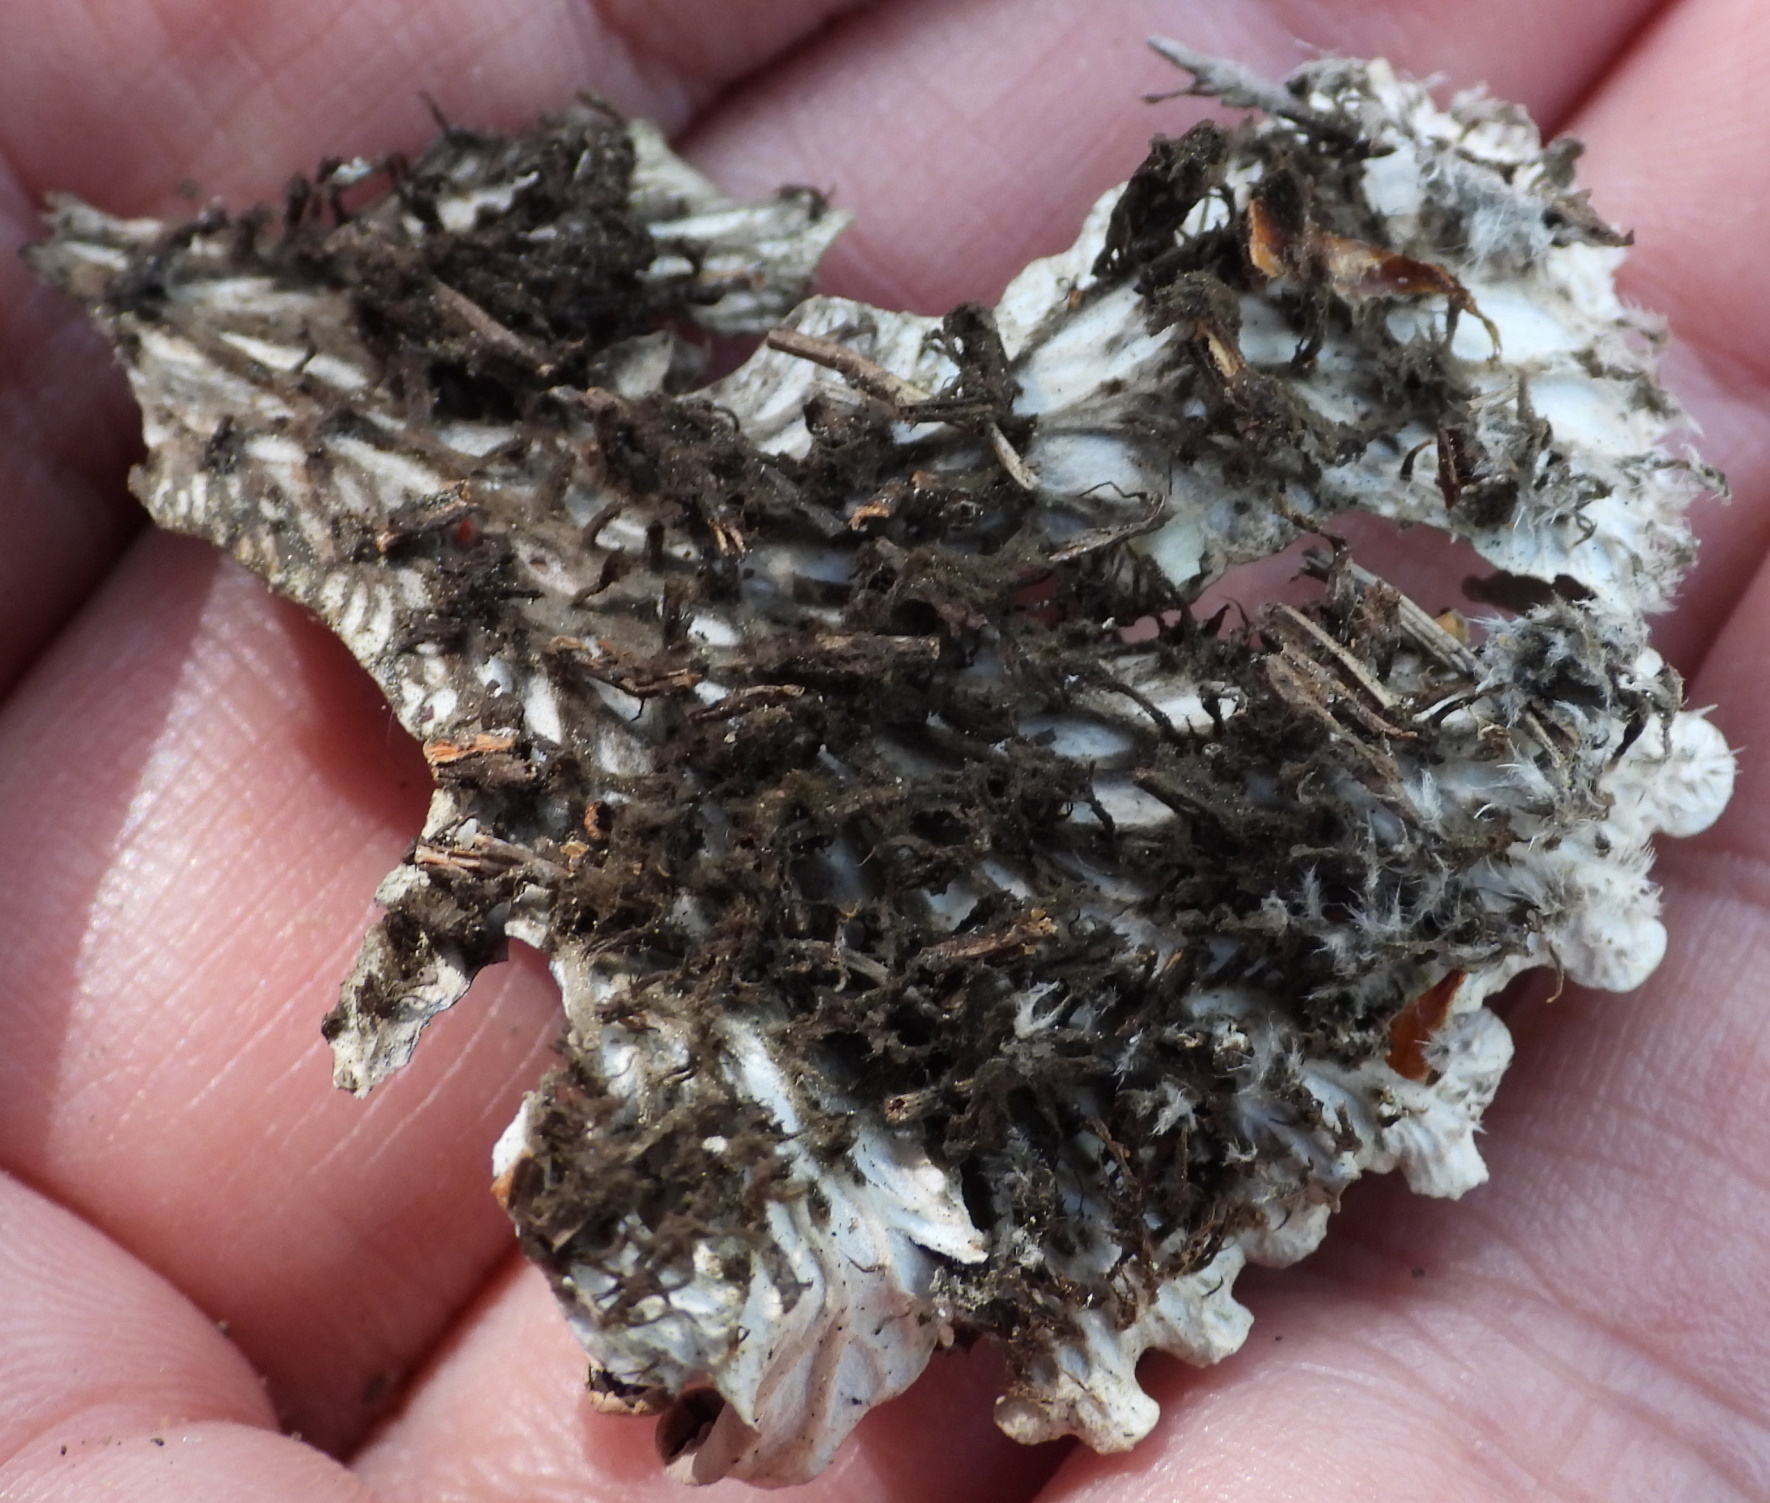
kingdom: Fungi
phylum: Ascomycota
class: Lecanoromycetes
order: Peltigerales
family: Peltigeraceae
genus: Peltigera
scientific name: Peltigera rufescens
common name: Field dog lichen
